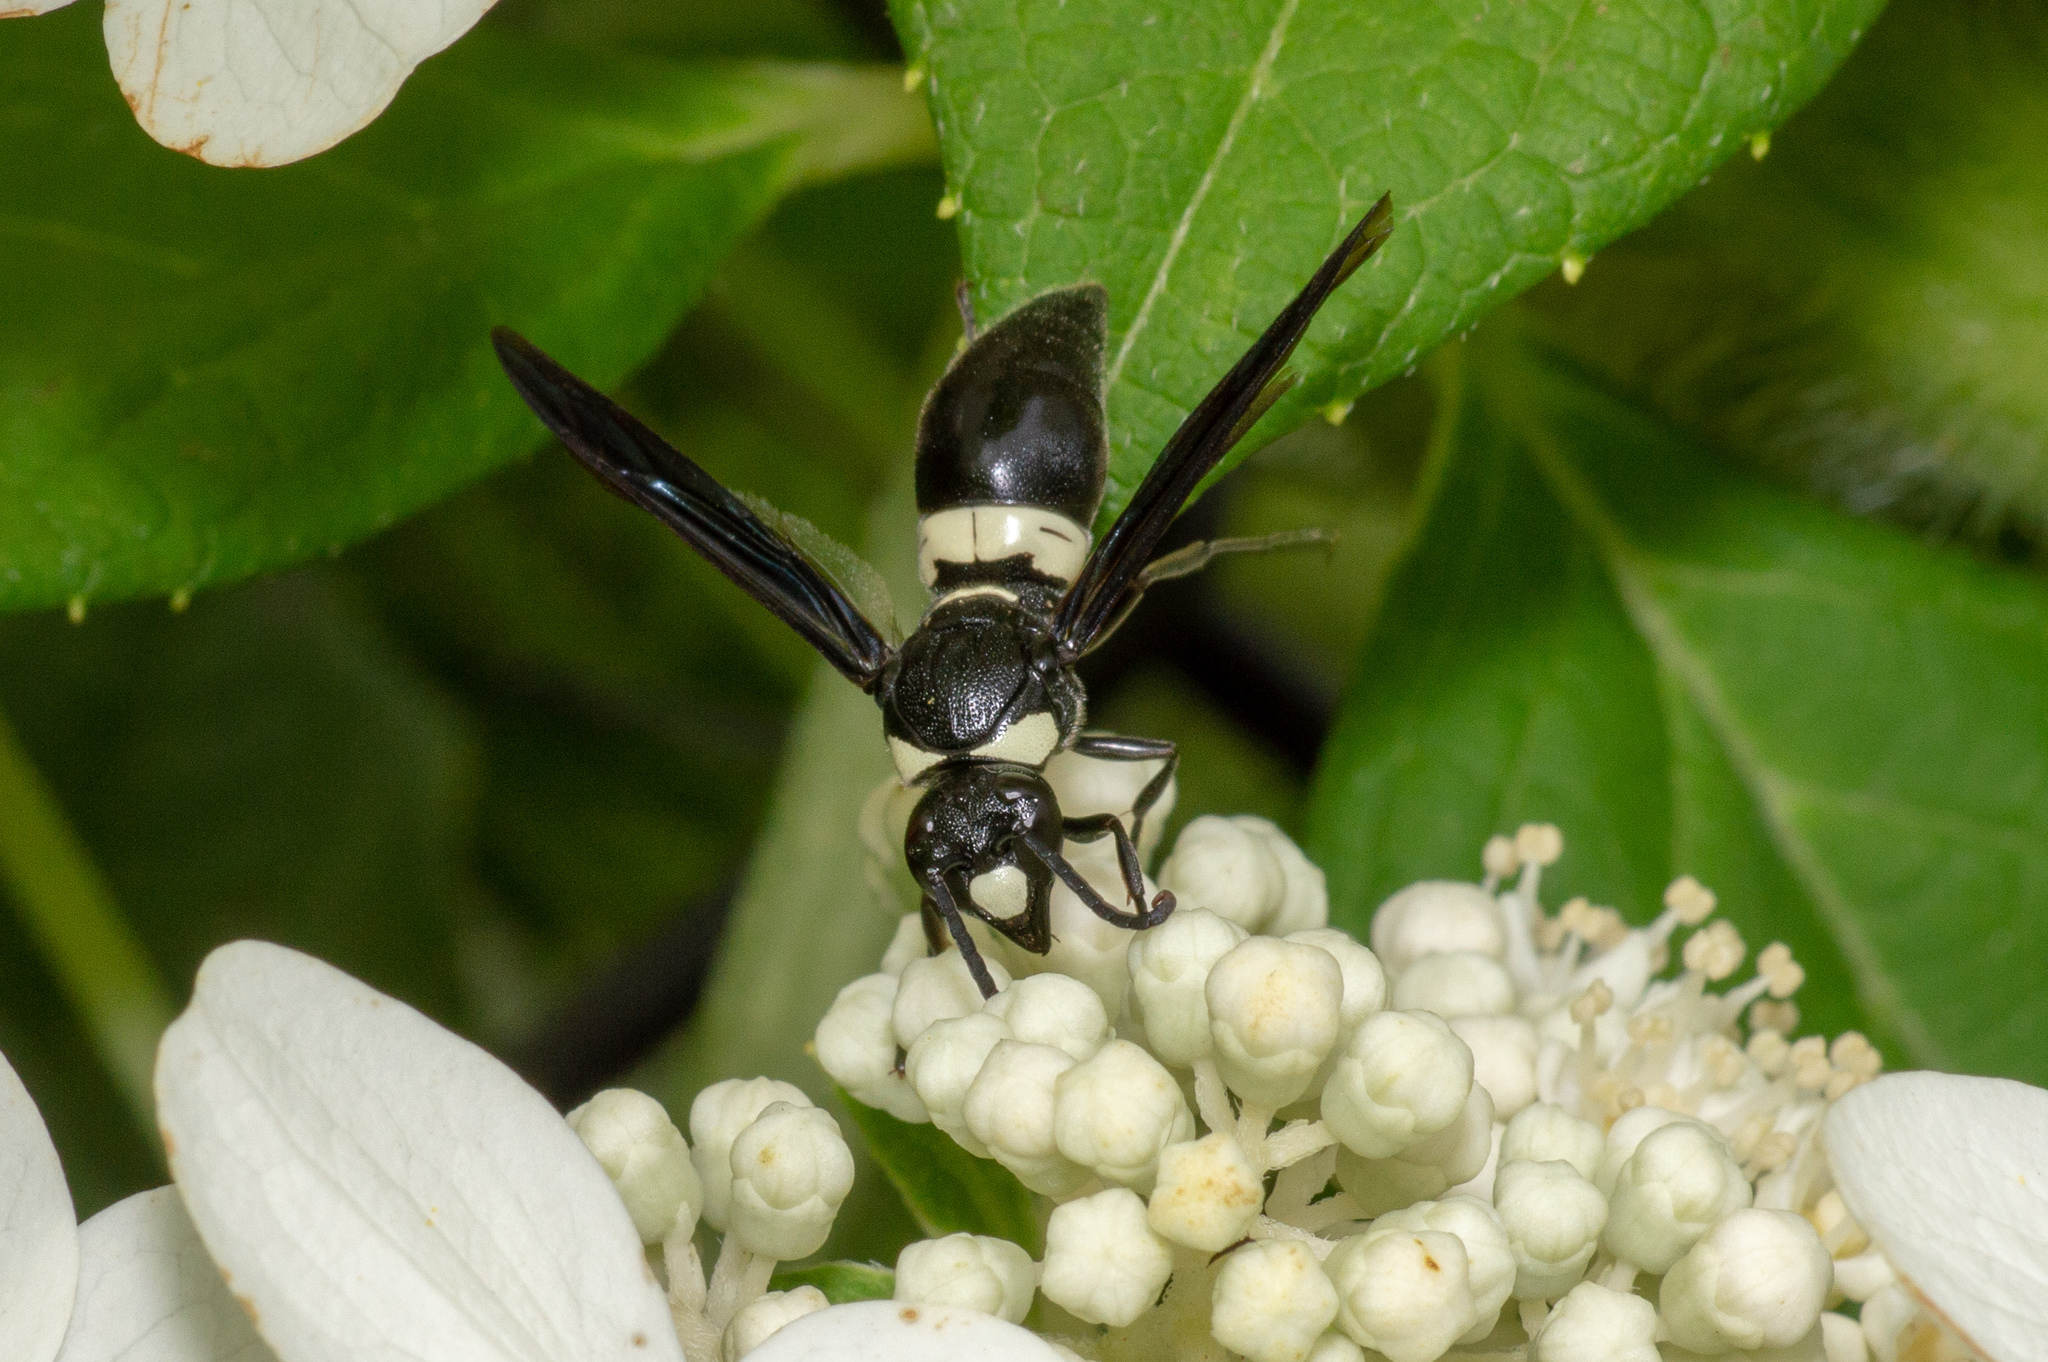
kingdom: Animalia
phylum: Arthropoda
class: Insecta
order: Hymenoptera
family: Eumenidae
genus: Monobia
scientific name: Monobia quadridens
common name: Four-toothed mason wasp
